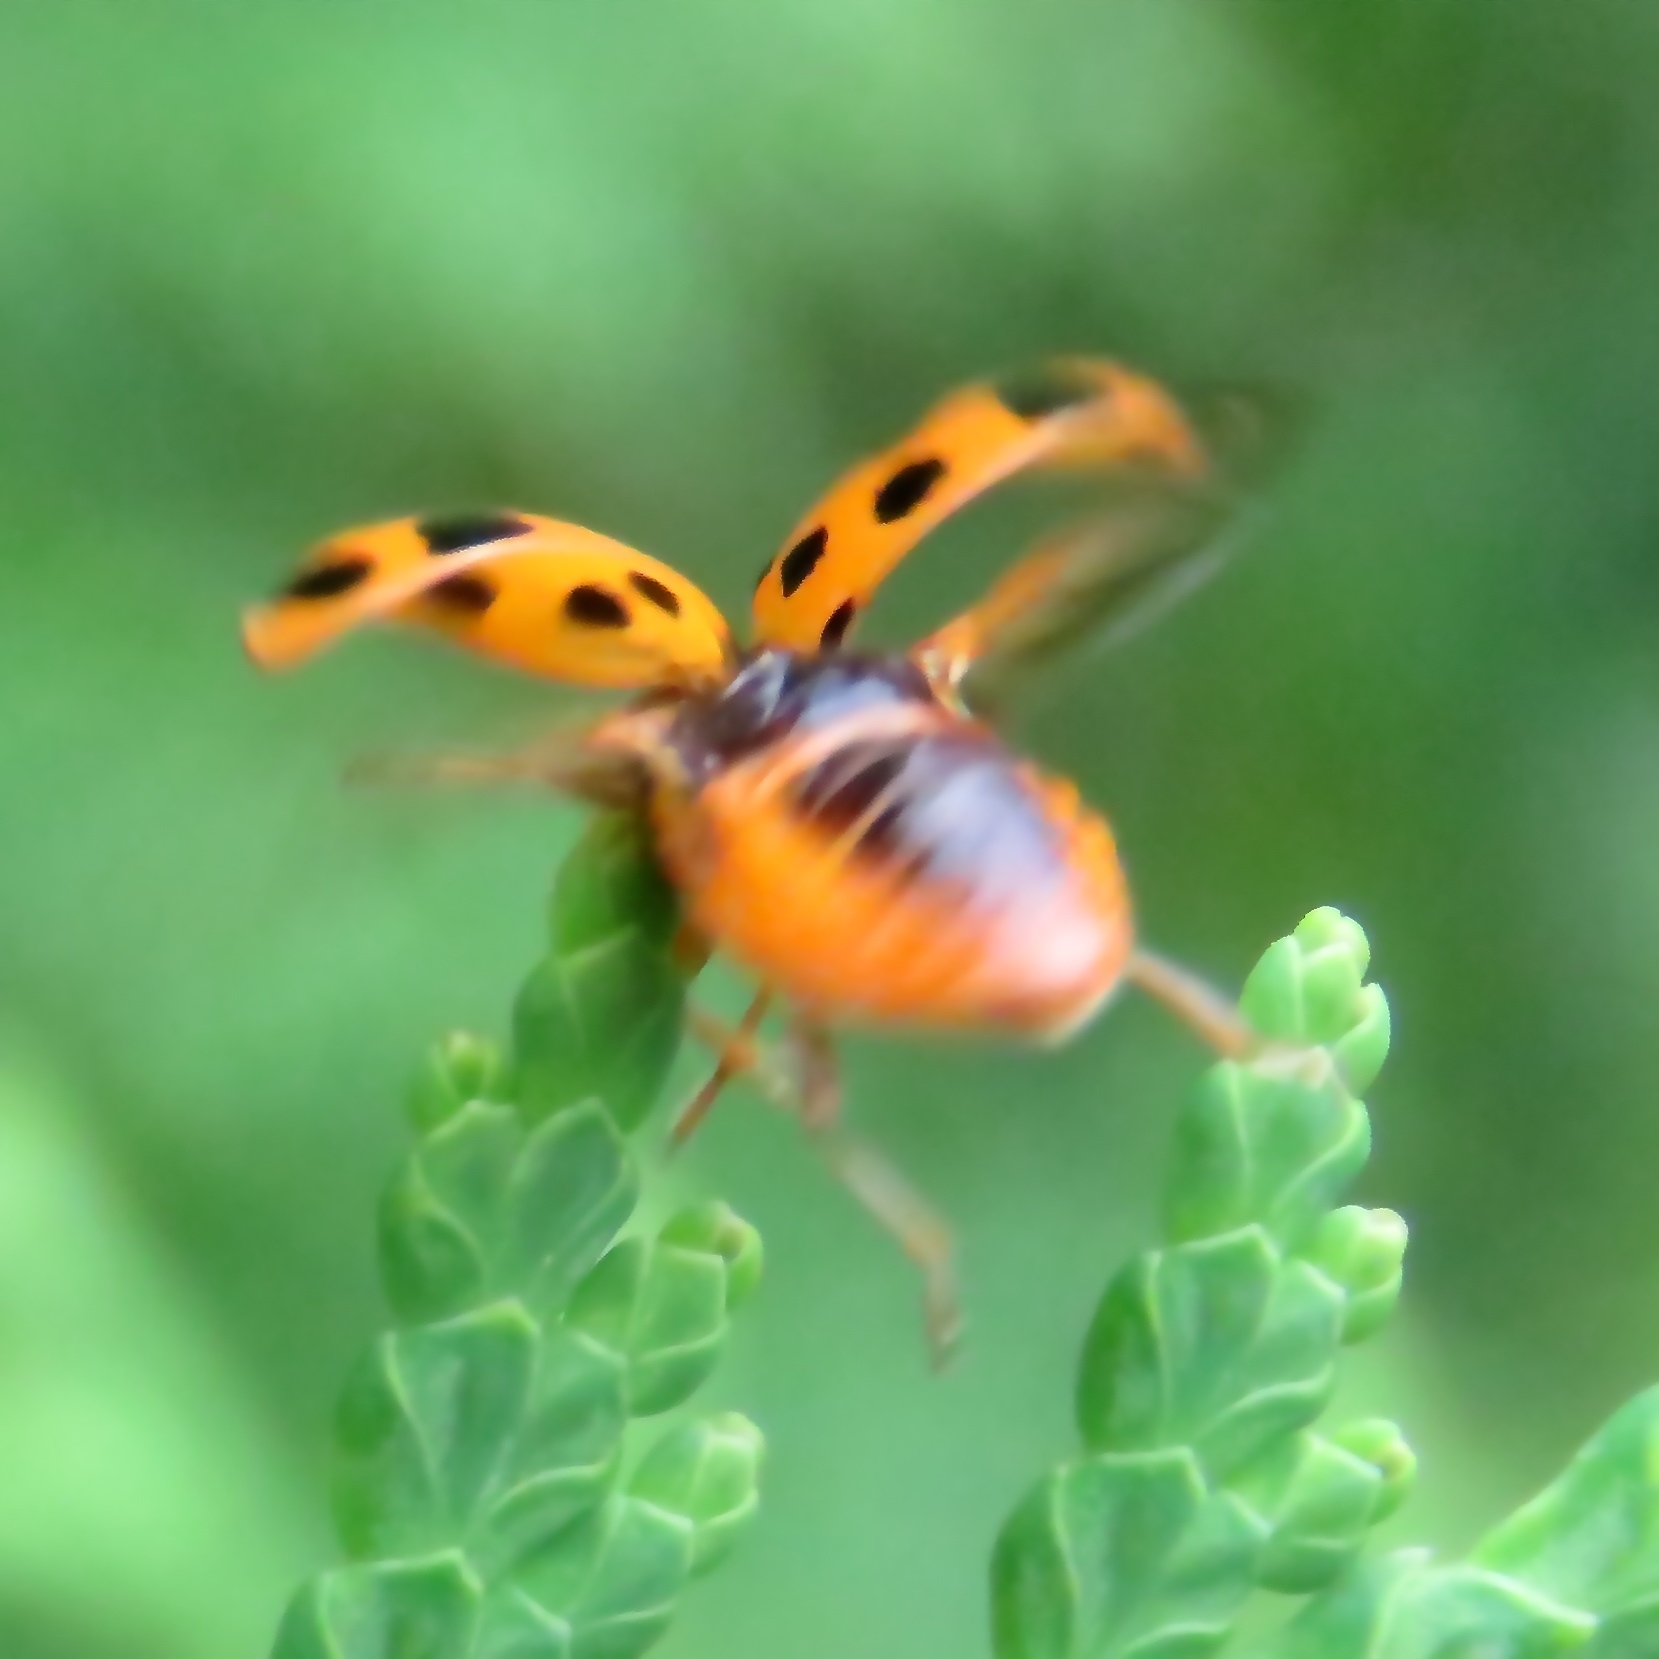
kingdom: Animalia
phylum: Arthropoda
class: Insecta
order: Coleoptera
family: Coccinellidae
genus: Harmonia
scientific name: Harmonia axyridis
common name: Harlequin ladybird
